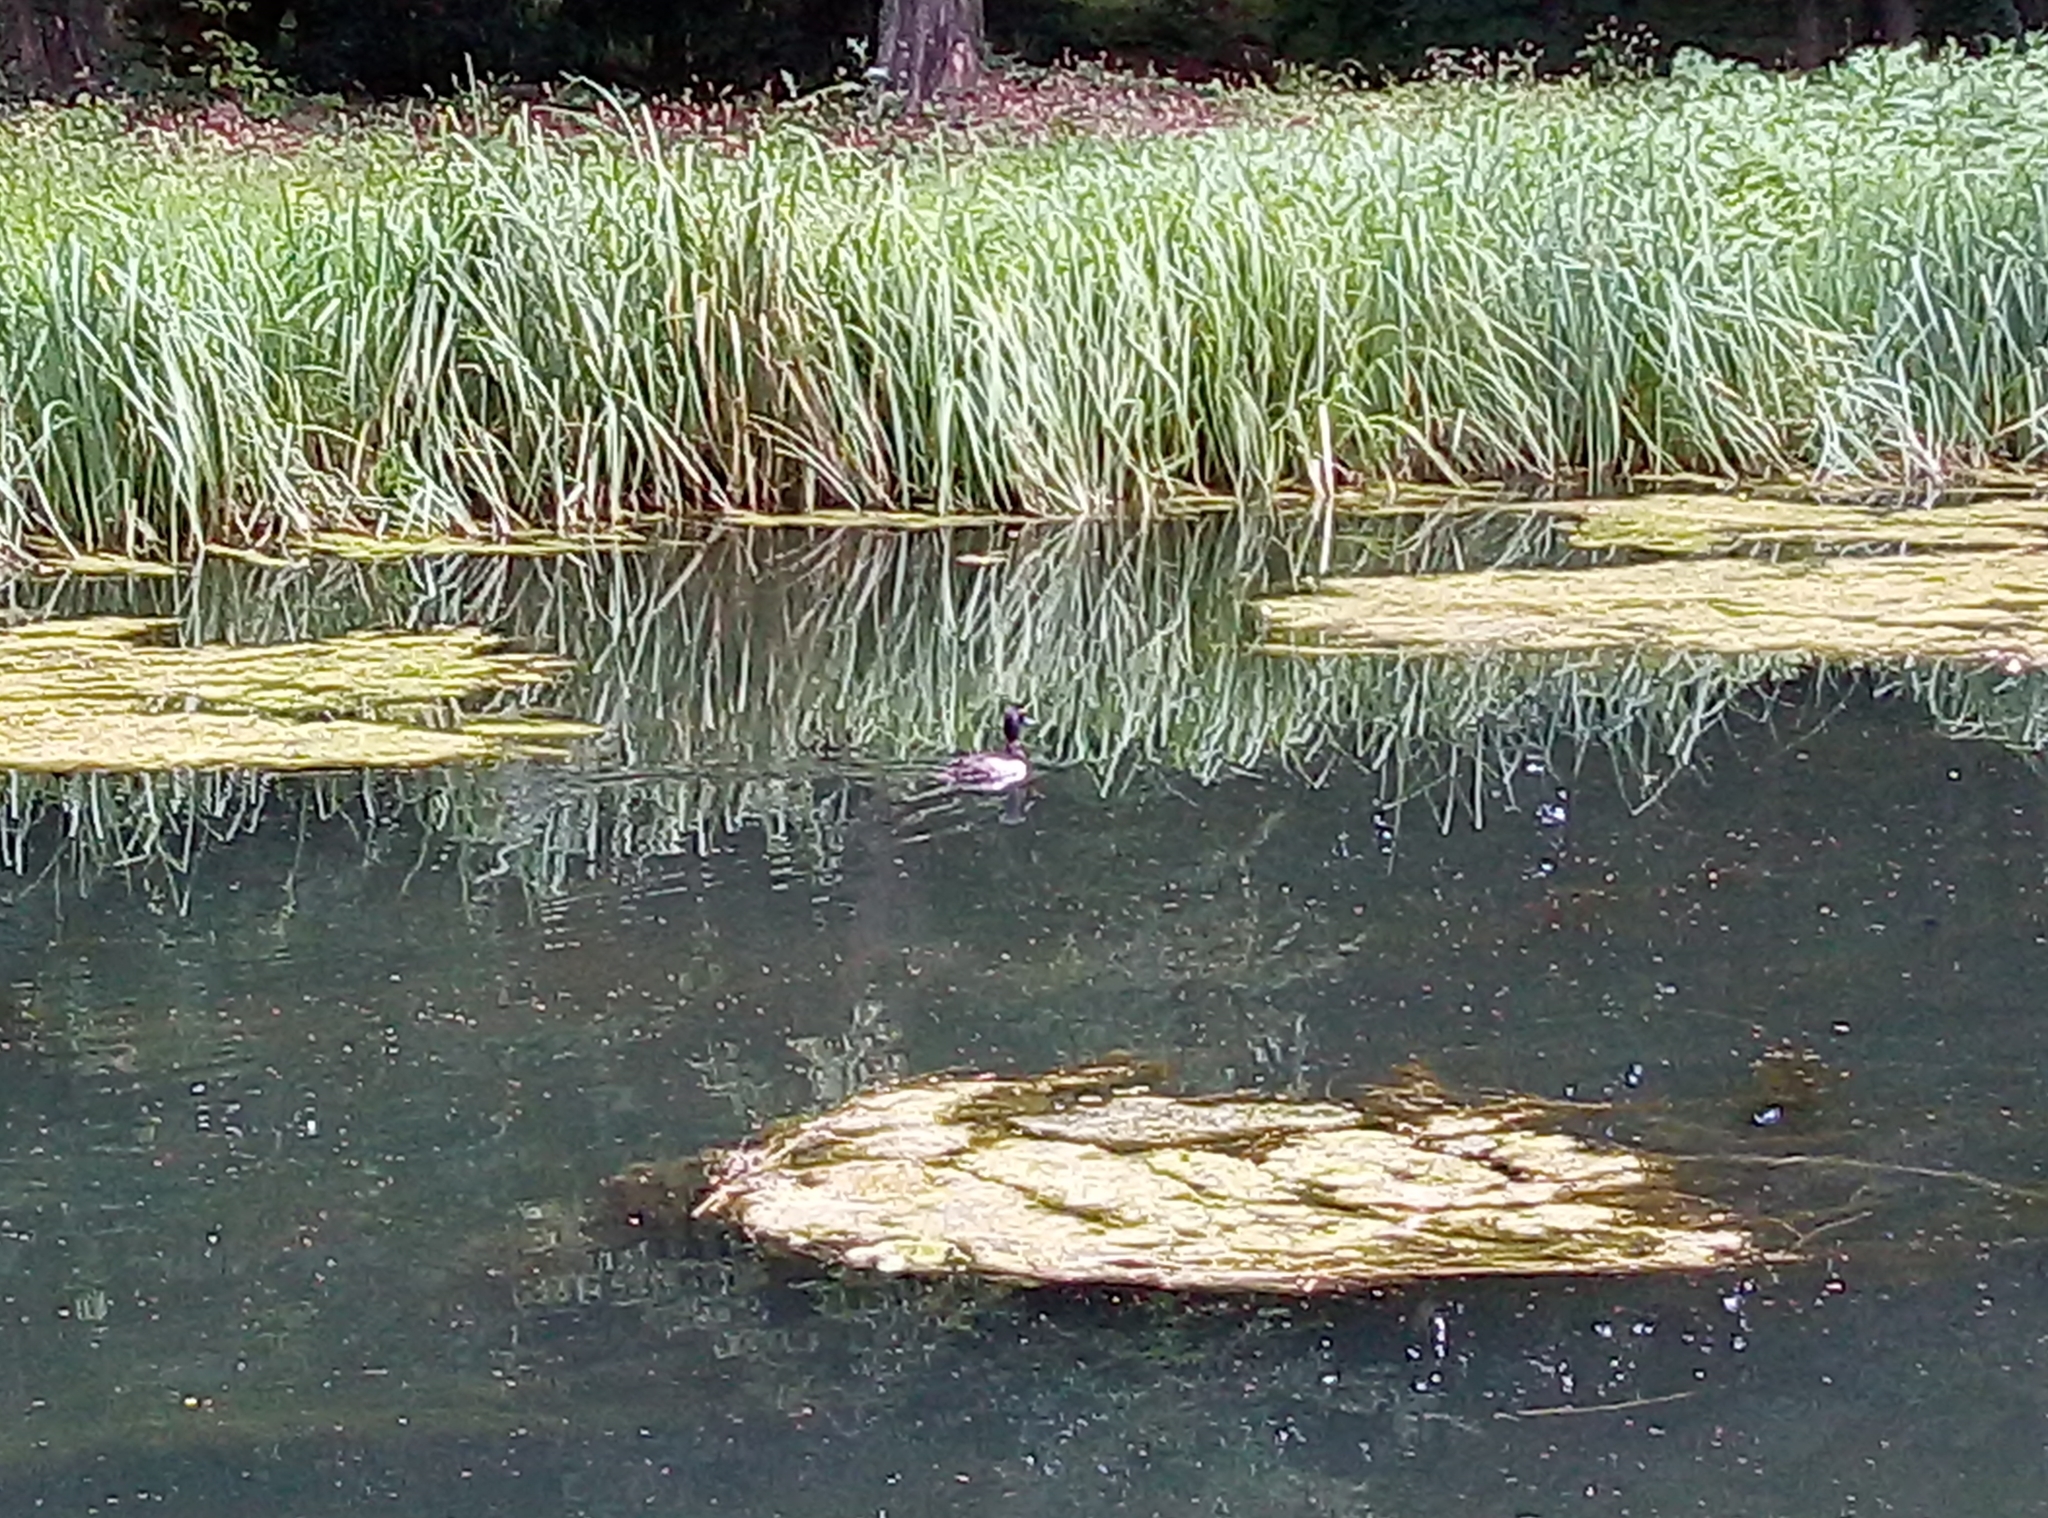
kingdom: Animalia
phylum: Chordata
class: Aves
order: Anseriformes
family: Anatidae
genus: Aythya
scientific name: Aythya fuligula
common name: Tufted duck
